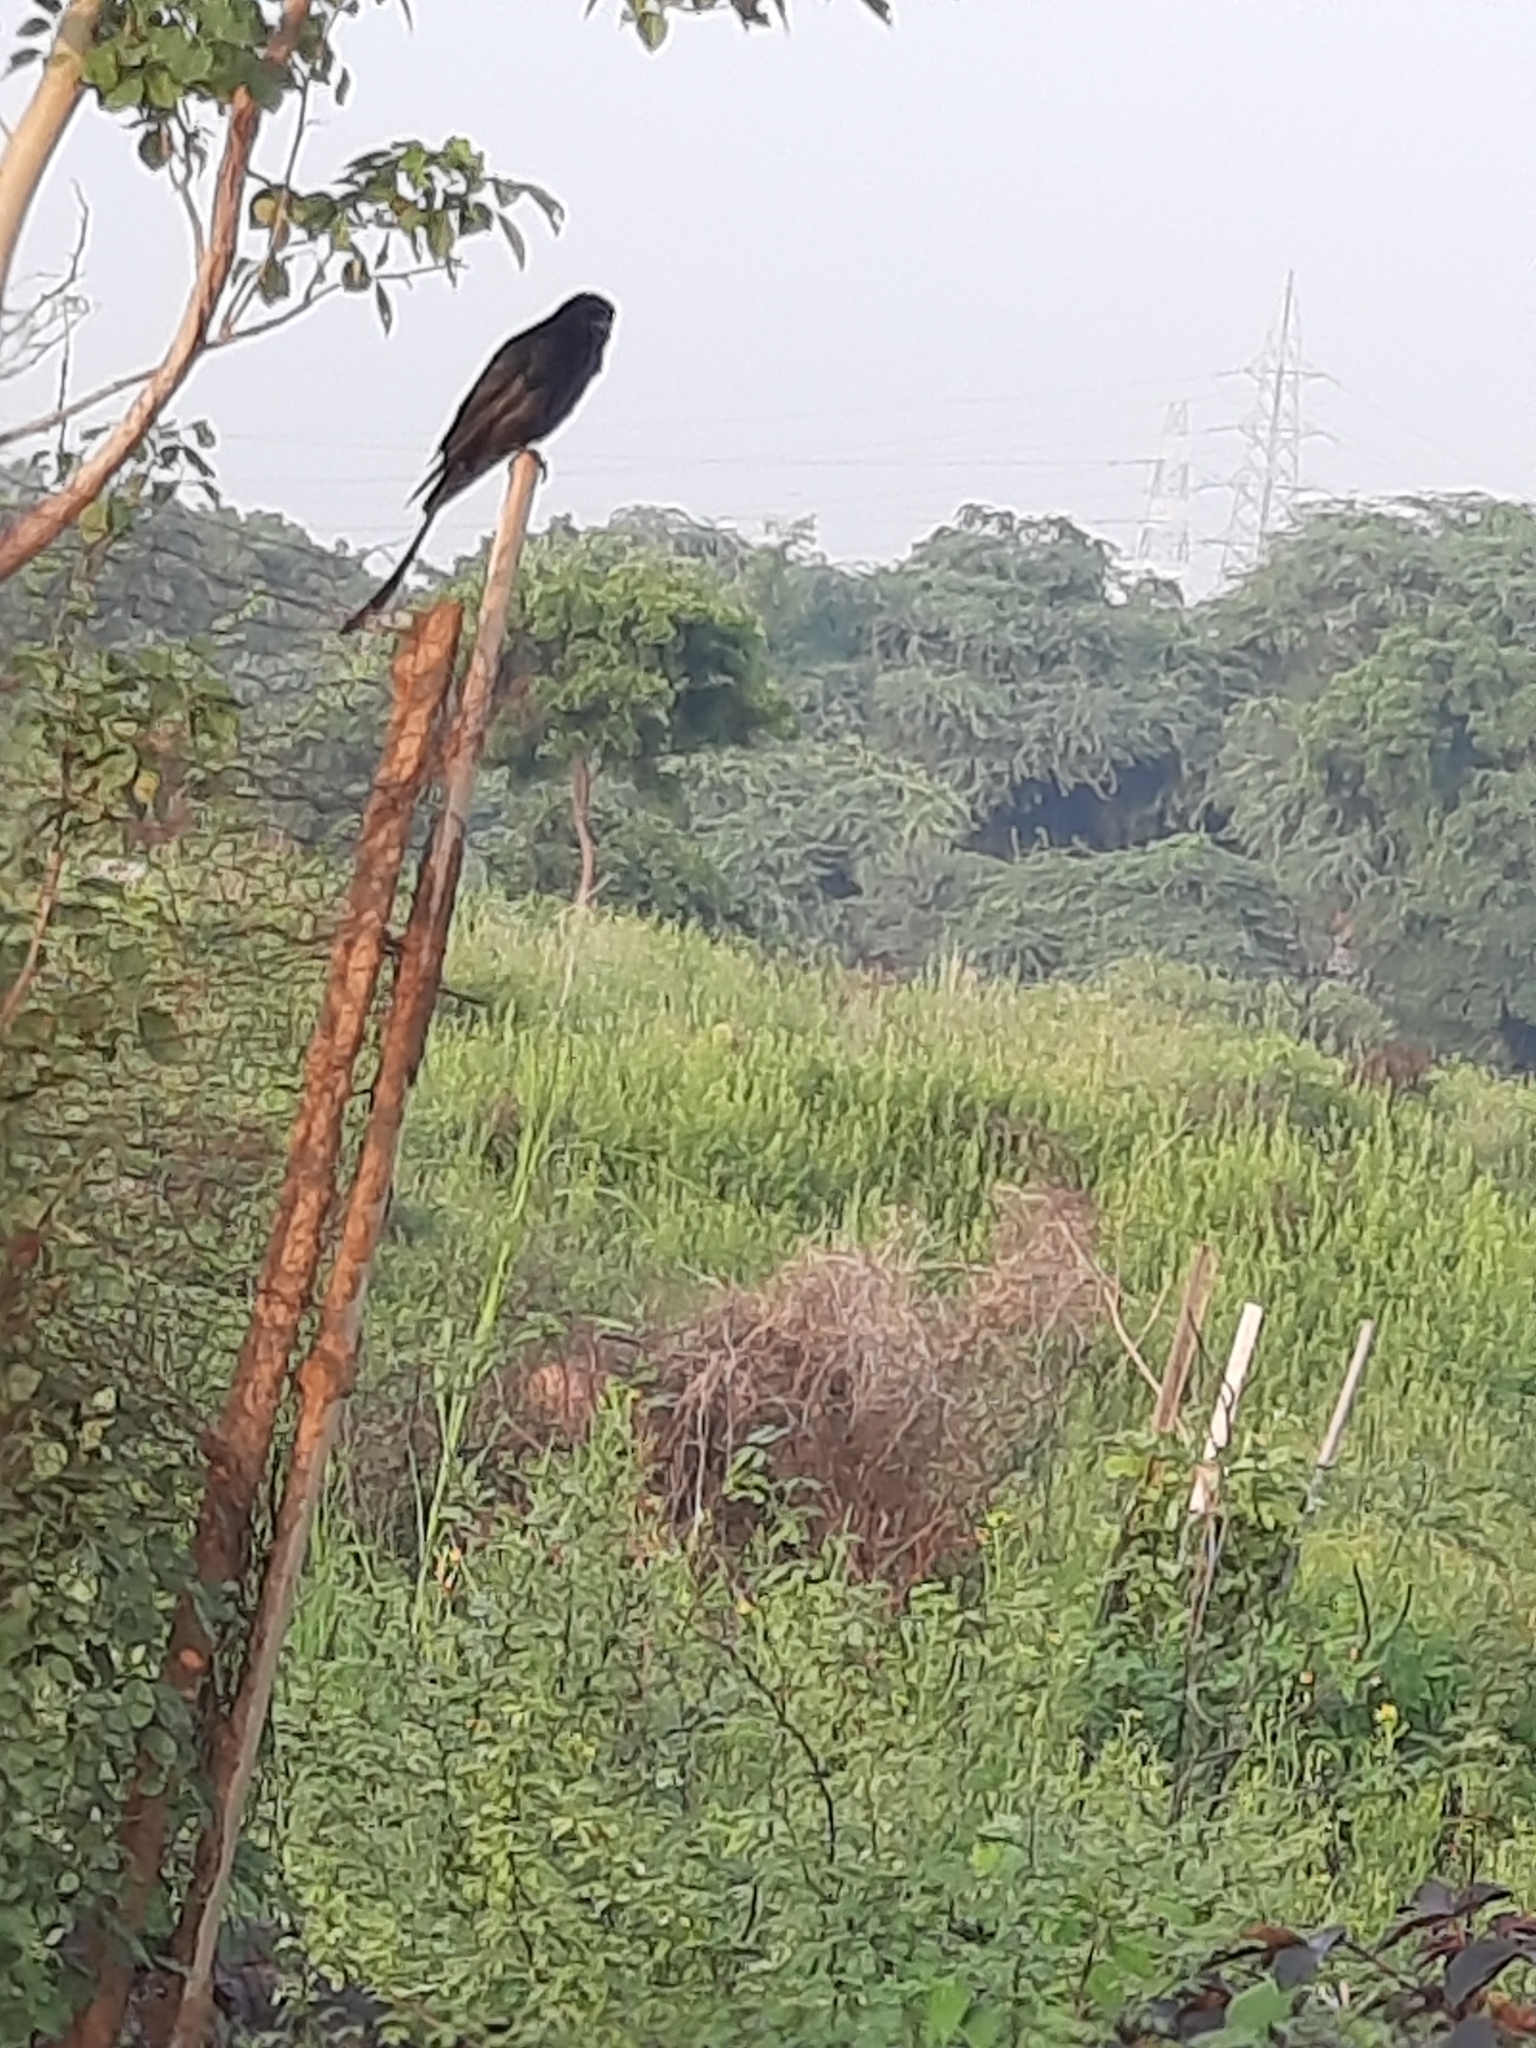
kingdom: Animalia
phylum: Chordata
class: Aves
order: Passeriformes
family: Dicruridae
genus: Dicrurus
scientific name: Dicrurus macrocercus
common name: Black drongo
